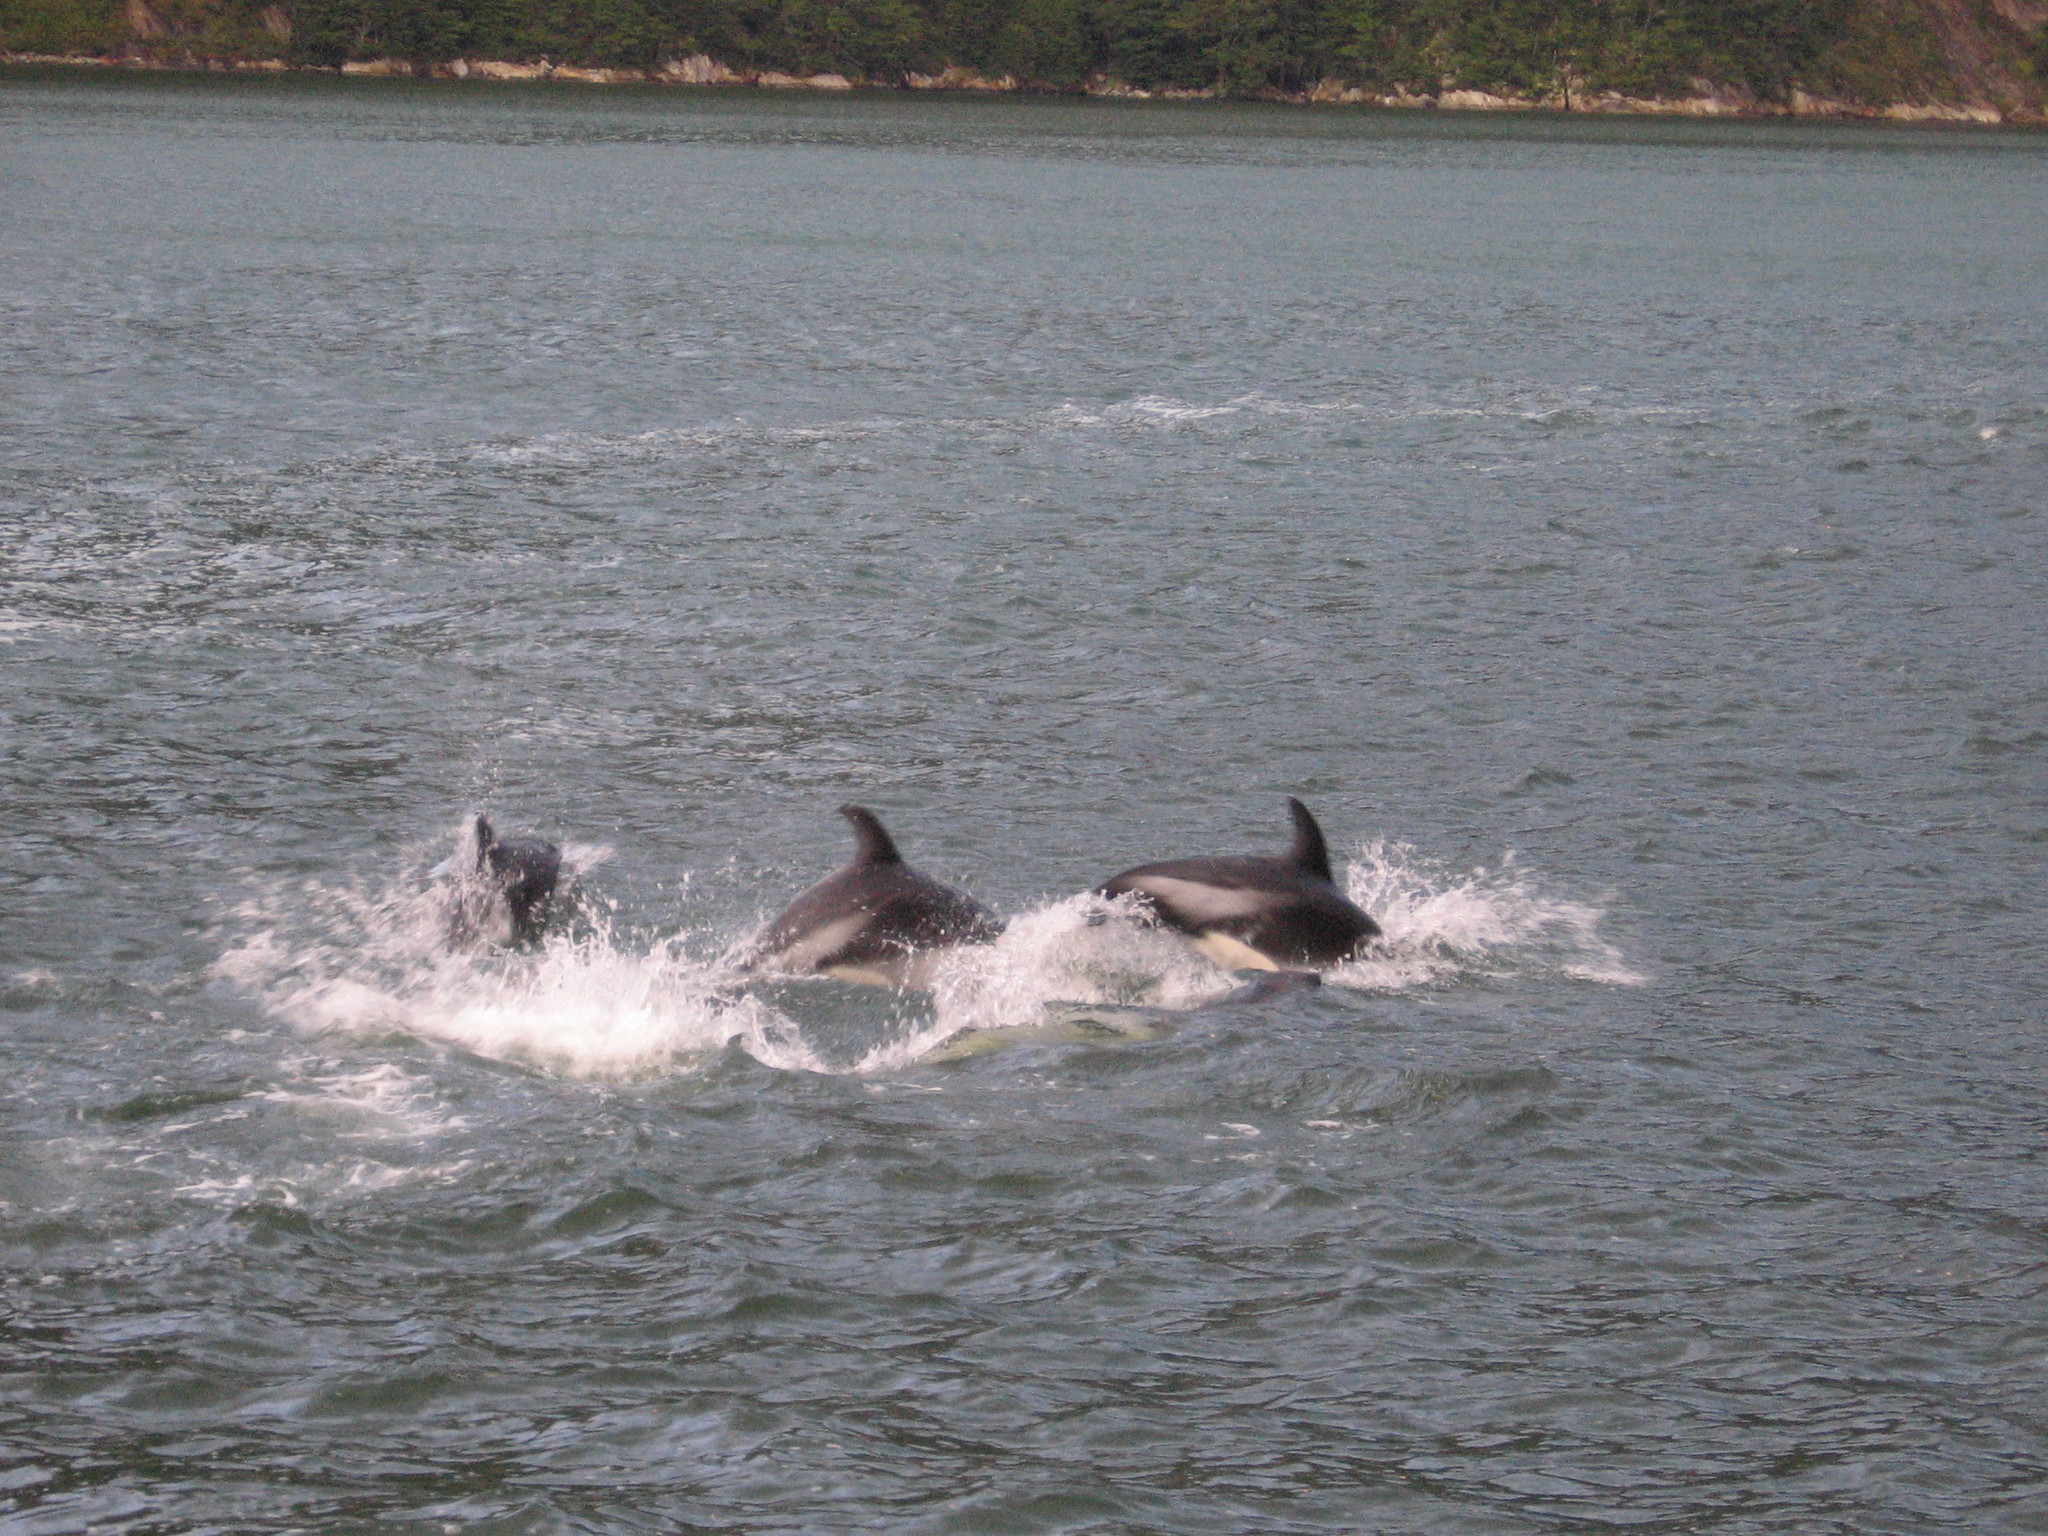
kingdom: Animalia
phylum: Chordata
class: Mammalia
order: Cetacea
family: Delphinidae
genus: Lagenorhynchus
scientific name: Lagenorhynchus australis
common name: Peale's dolphin
